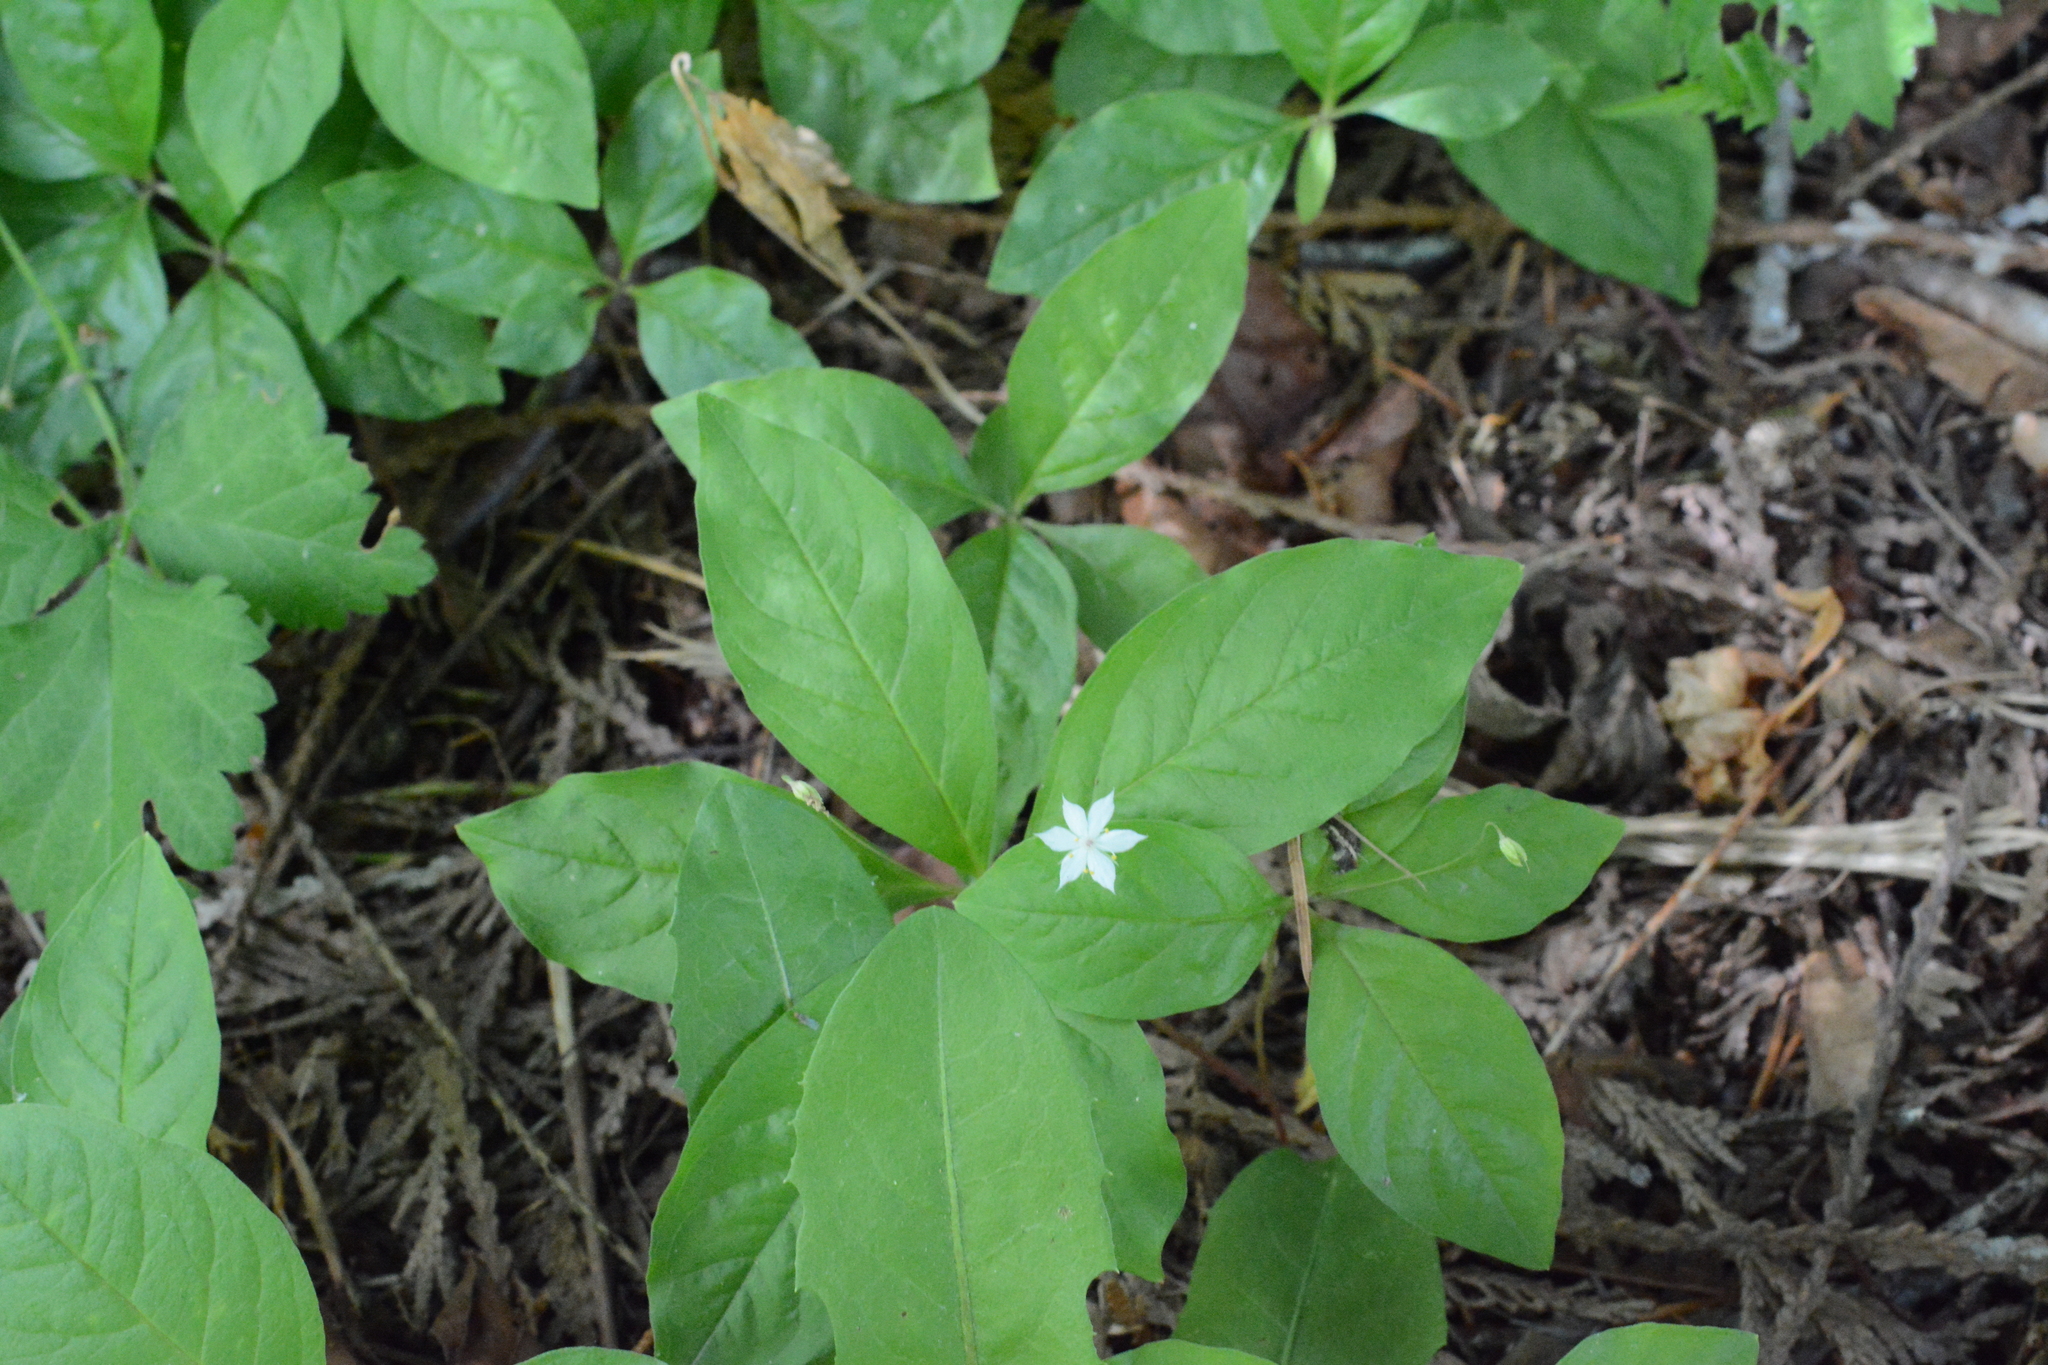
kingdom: Plantae
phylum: Tracheophyta
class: Magnoliopsida
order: Ericales
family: Primulaceae
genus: Lysimachia
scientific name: Lysimachia latifolia
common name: Pacific starflower
